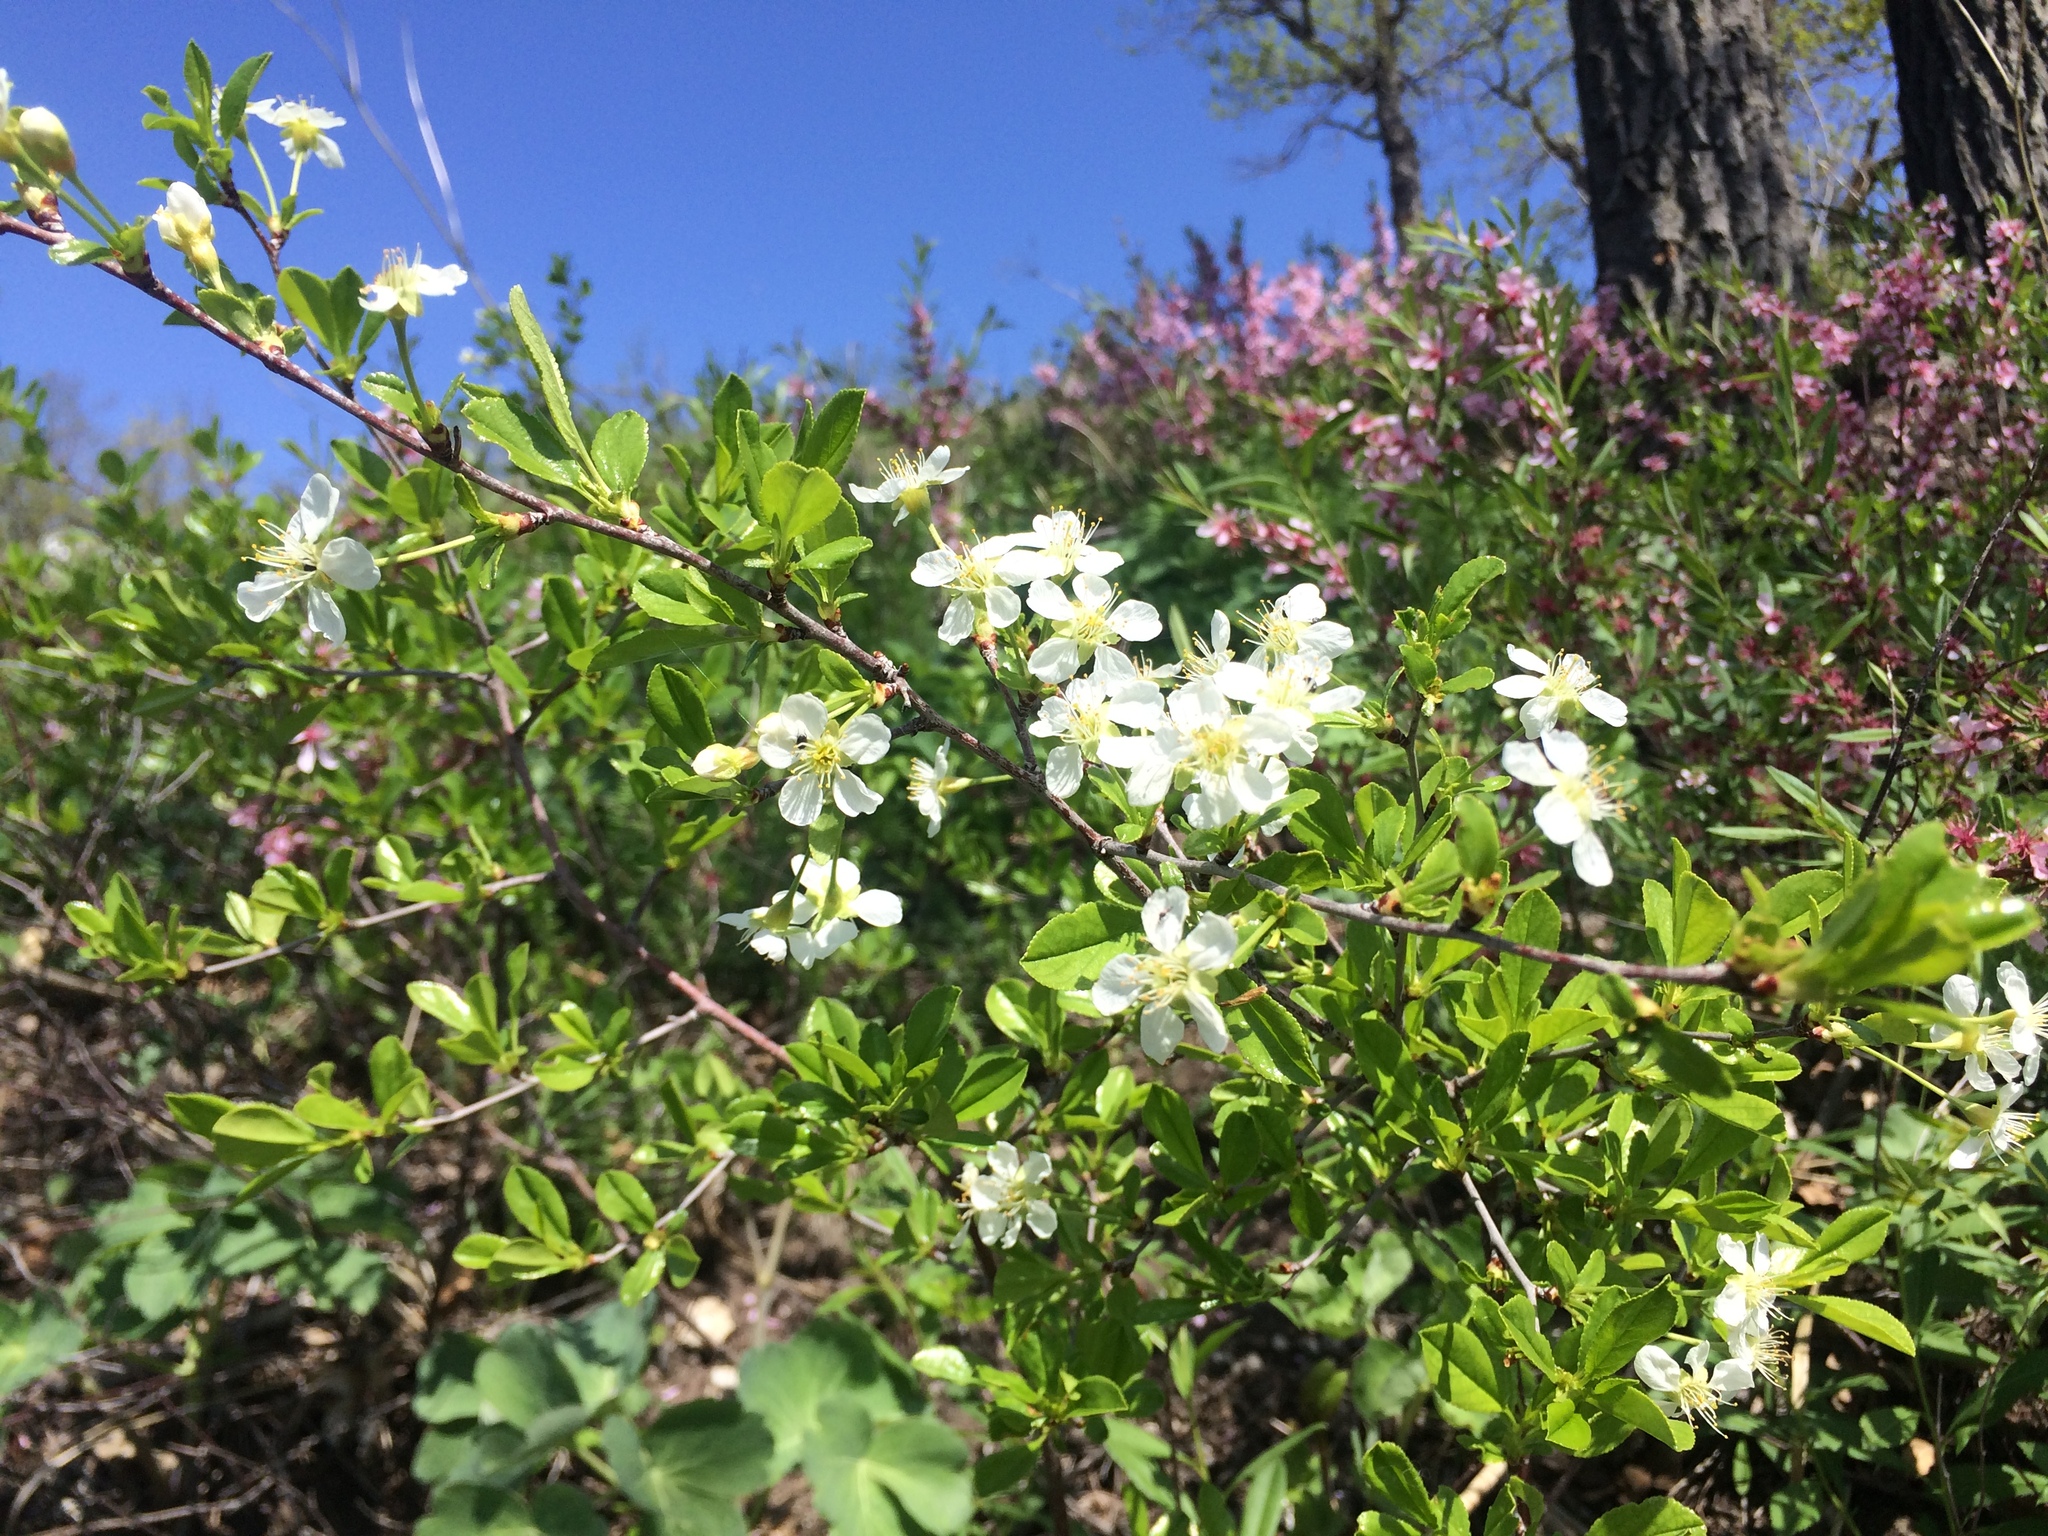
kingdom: Plantae
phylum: Tracheophyta
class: Magnoliopsida
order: Rosales
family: Rosaceae
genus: Prunus
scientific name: Prunus fruticosa
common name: European dwarf cherry
